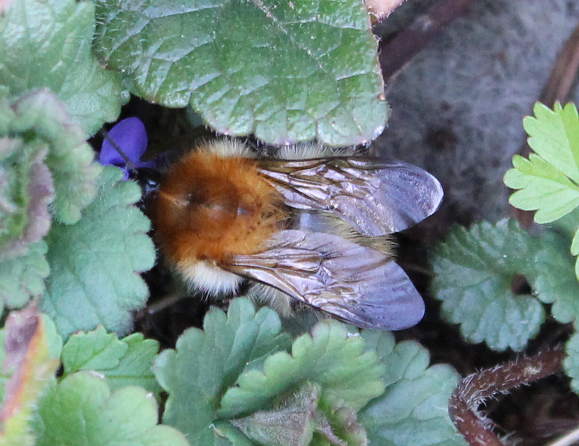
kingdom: Animalia
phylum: Arthropoda
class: Insecta
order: Hymenoptera
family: Apidae
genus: Bombus
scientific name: Bombus pascuorum
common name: Common carder bee
